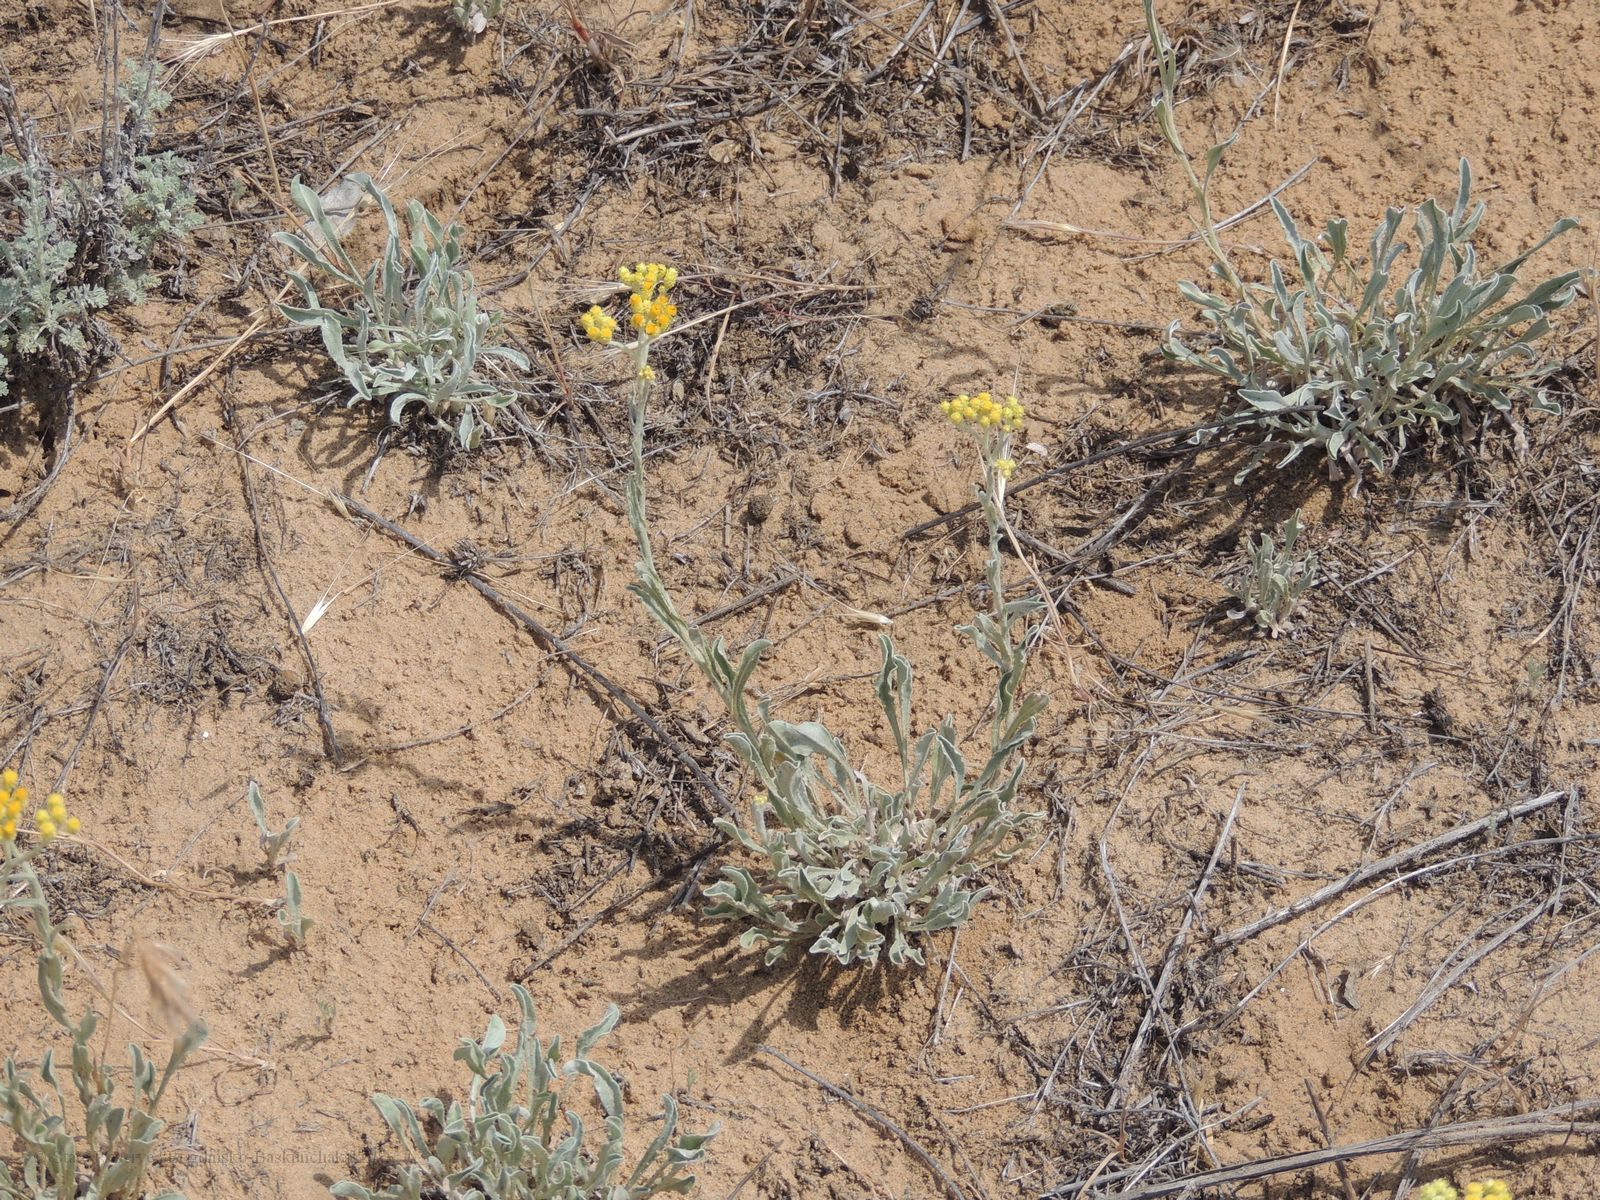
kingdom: Plantae
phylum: Tracheophyta
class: Magnoliopsida
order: Asterales
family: Asteraceae
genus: Helichrysum
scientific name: Helichrysum arenarium
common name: Strawflower
